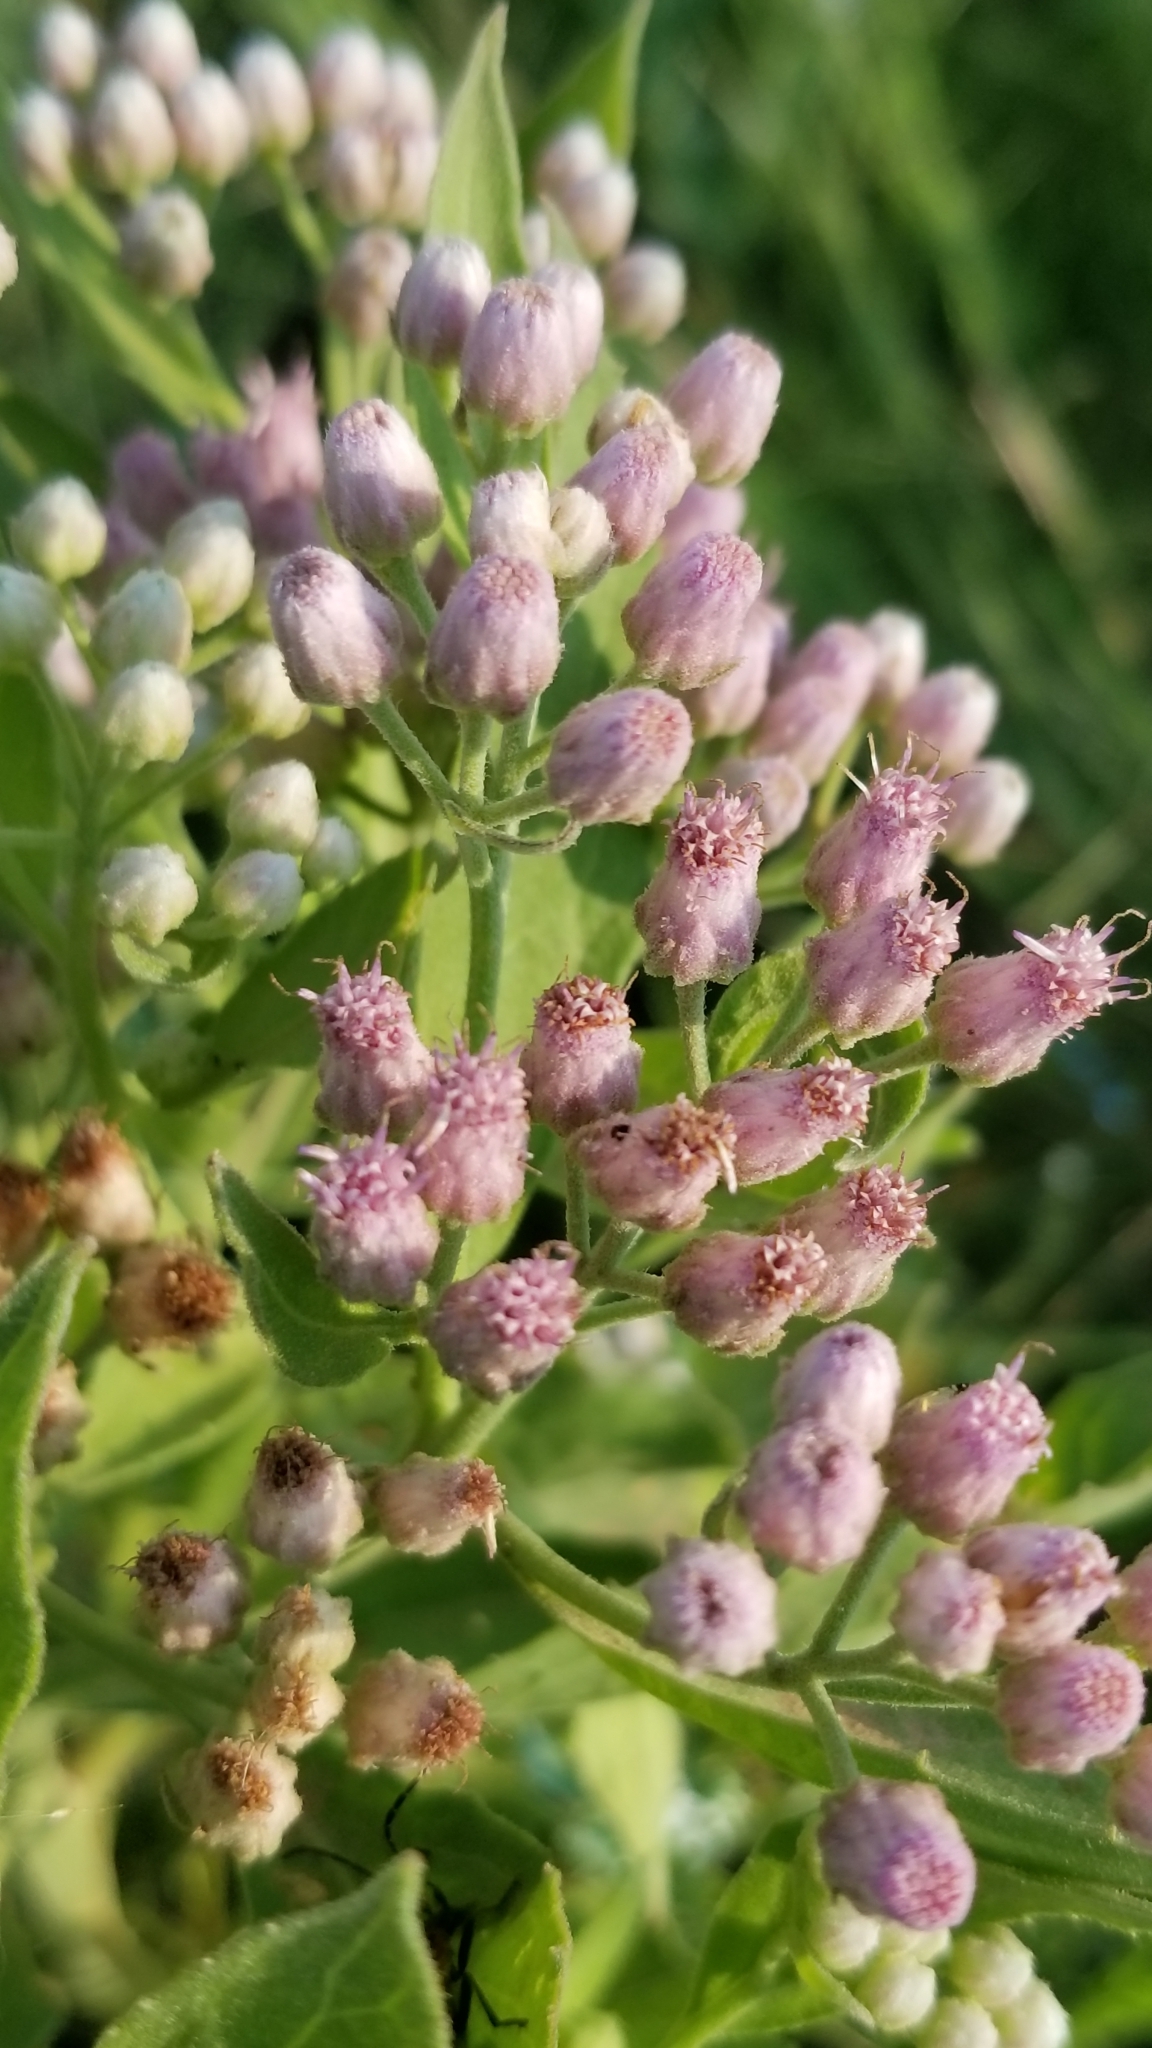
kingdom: Plantae
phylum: Tracheophyta
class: Magnoliopsida
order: Asterales
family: Asteraceae
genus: Pluchea
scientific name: Pluchea odorata
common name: Saltmarsh fleabane
